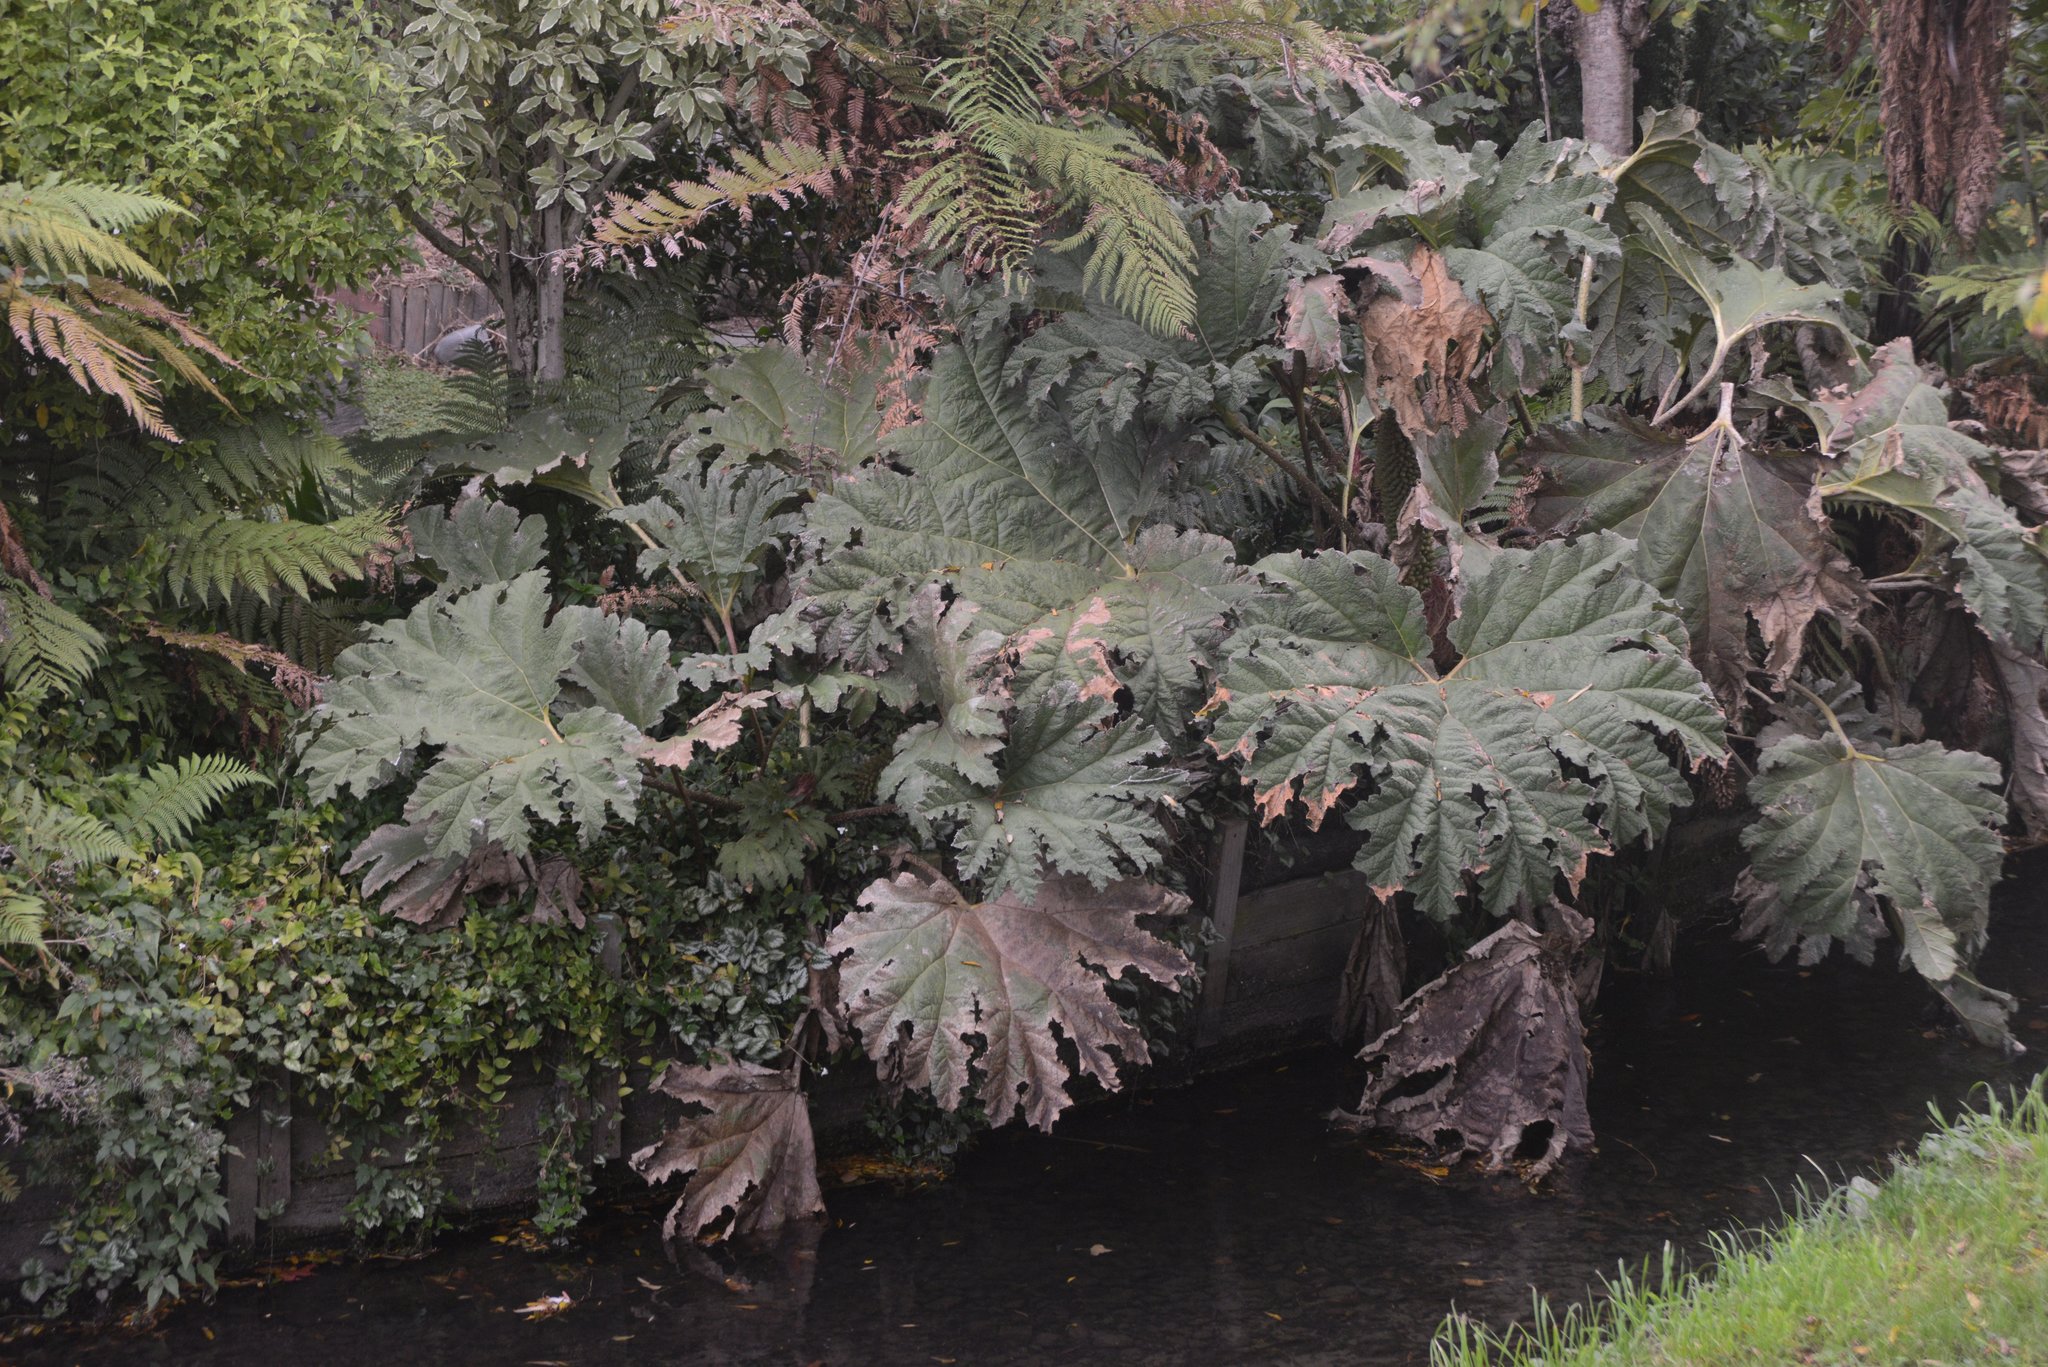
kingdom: Plantae
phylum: Tracheophyta
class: Magnoliopsida
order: Gunnerales
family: Gunneraceae
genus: Gunnera
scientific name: Gunnera tinctoria
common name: Giant-rhubarb
